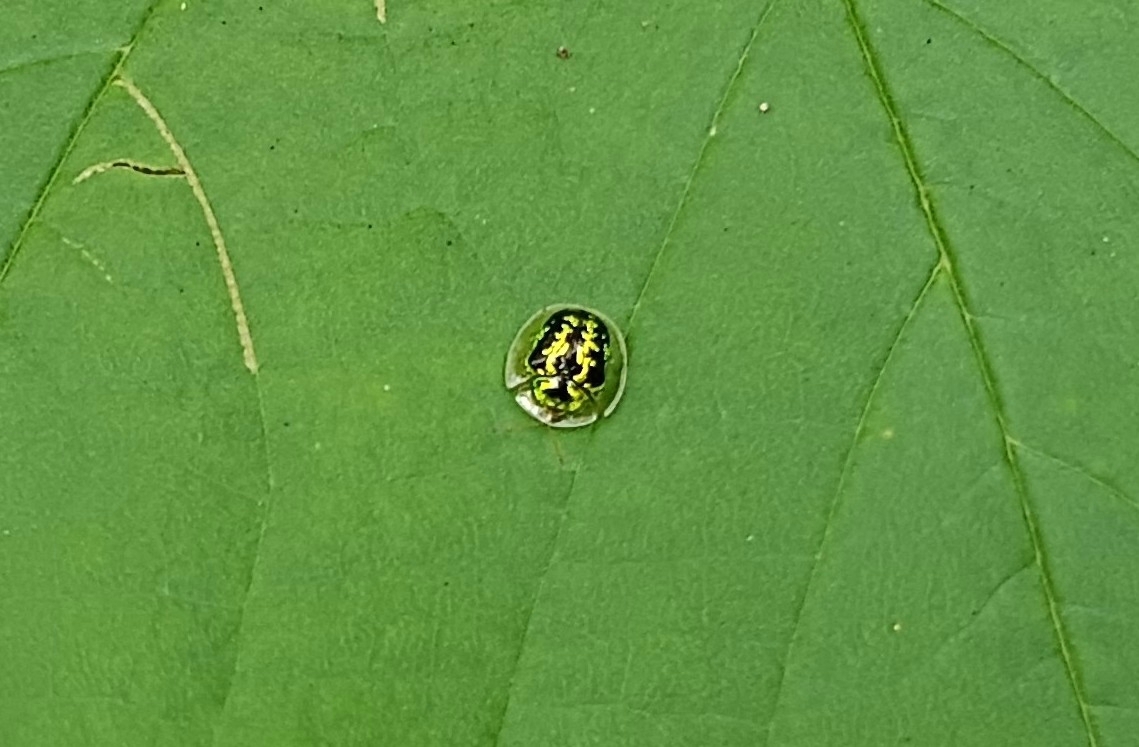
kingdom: Animalia
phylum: Arthropoda
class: Insecta
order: Coleoptera
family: Chrysomelidae
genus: Cassida
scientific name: Cassida circumdata
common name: Tortoise beetle
